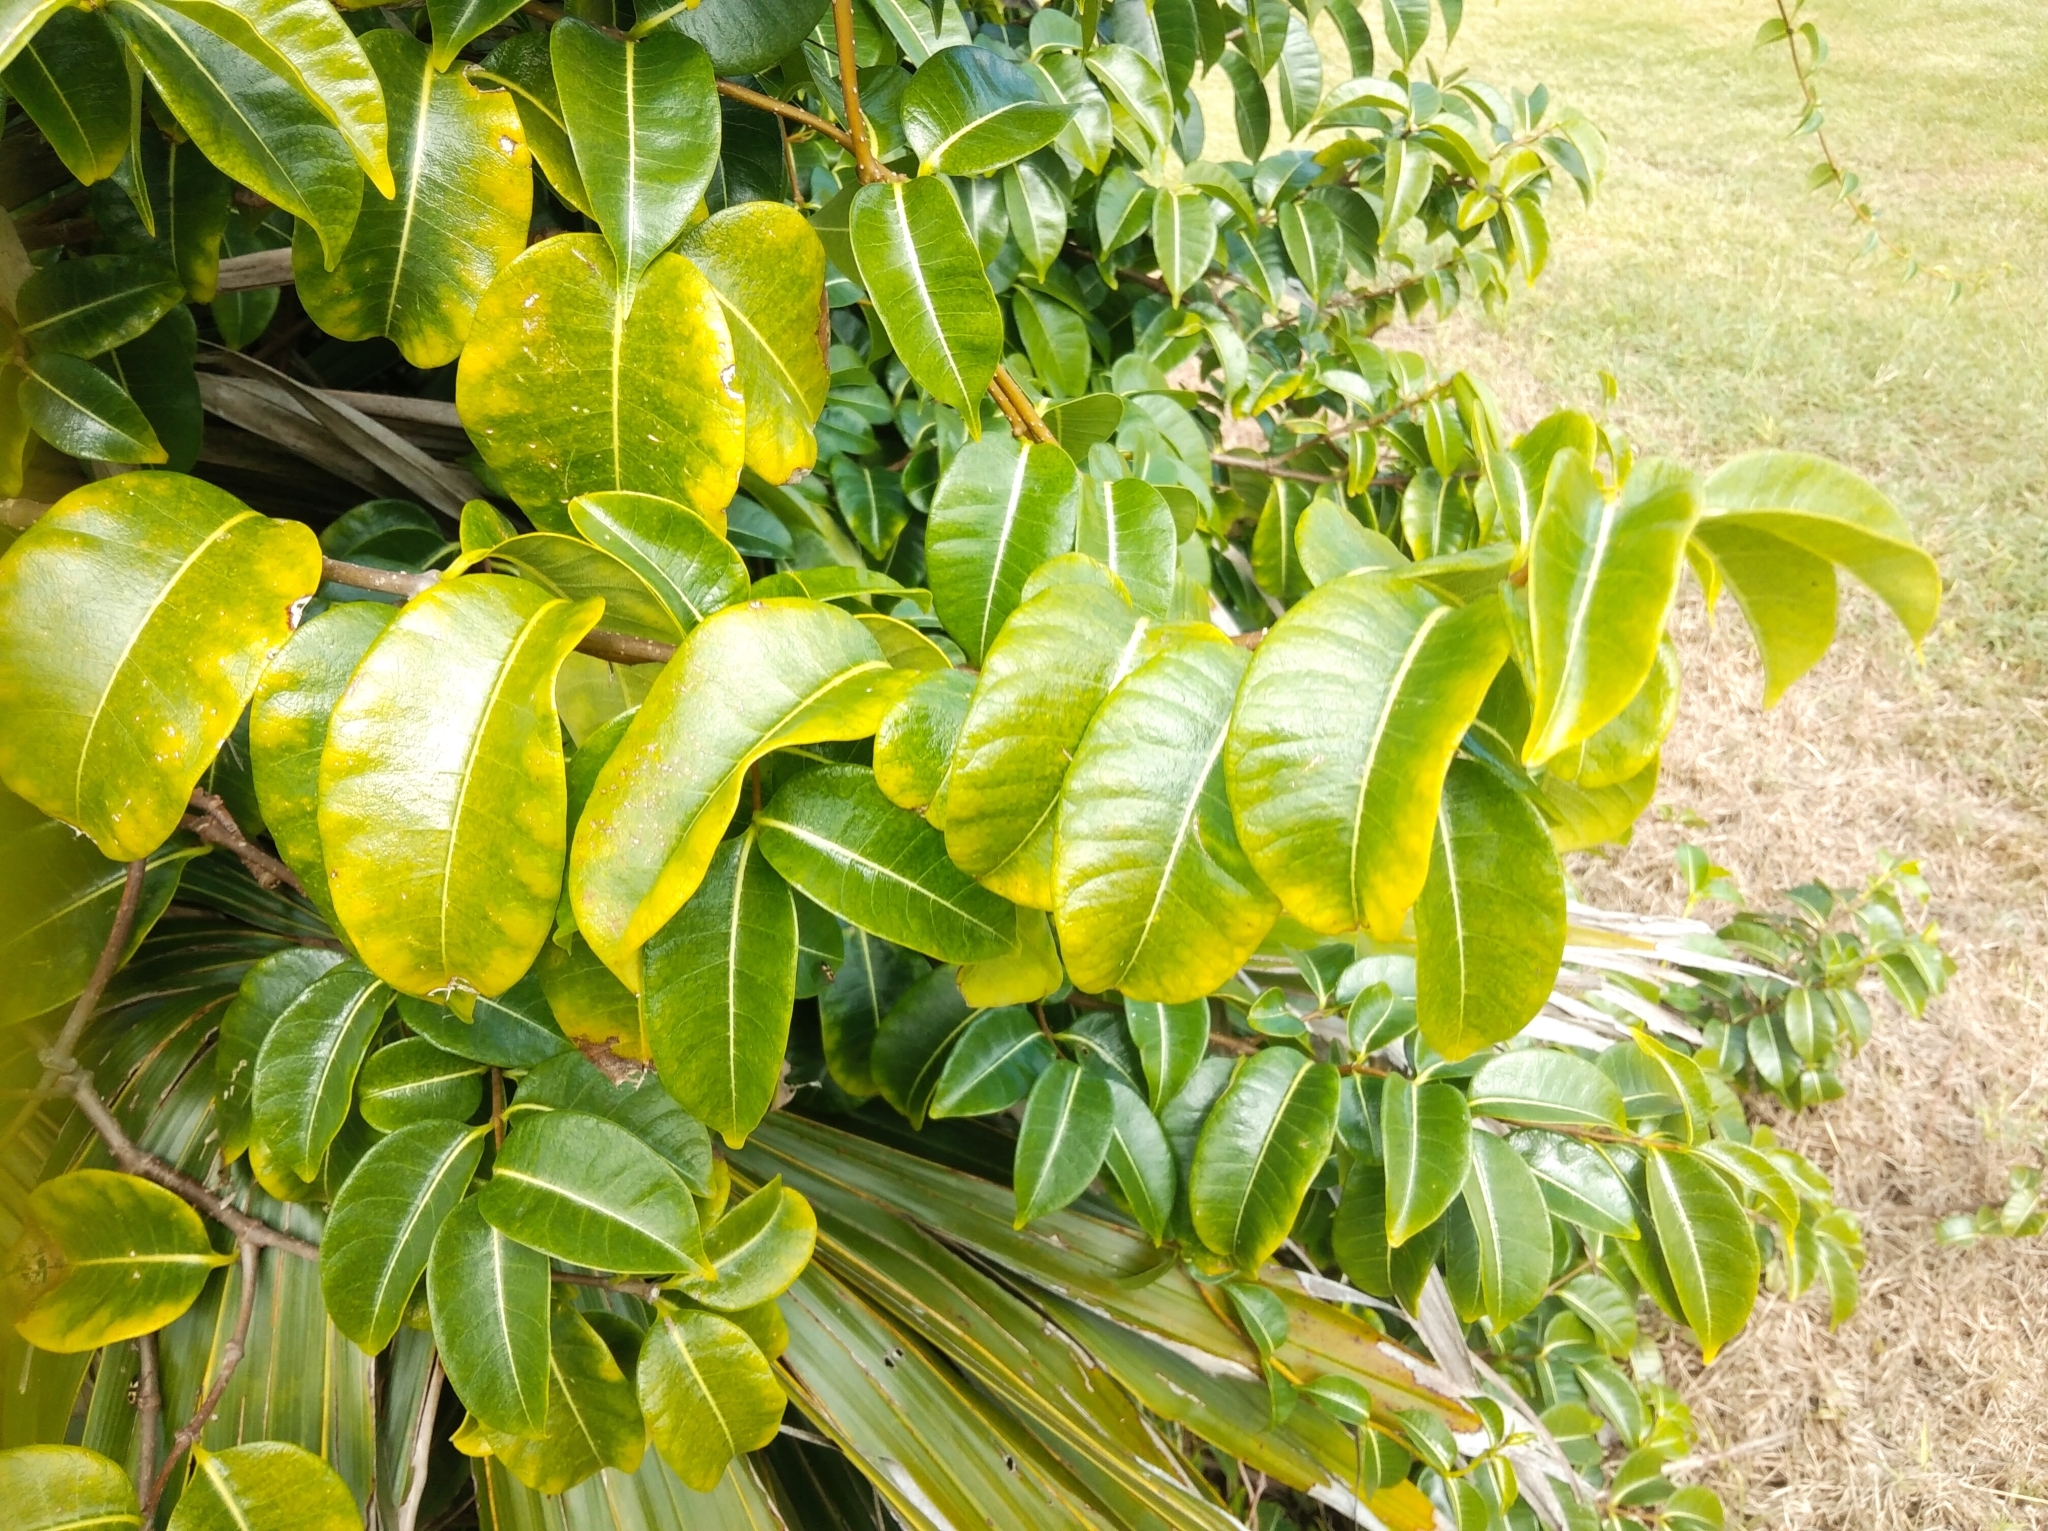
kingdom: Plantae
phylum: Tracheophyta
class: Magnoliopsida
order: Gentianales
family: Apocynaceae
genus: Cryptostegia
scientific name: Cryptostegia grandiflora
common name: Palay rubbervine
